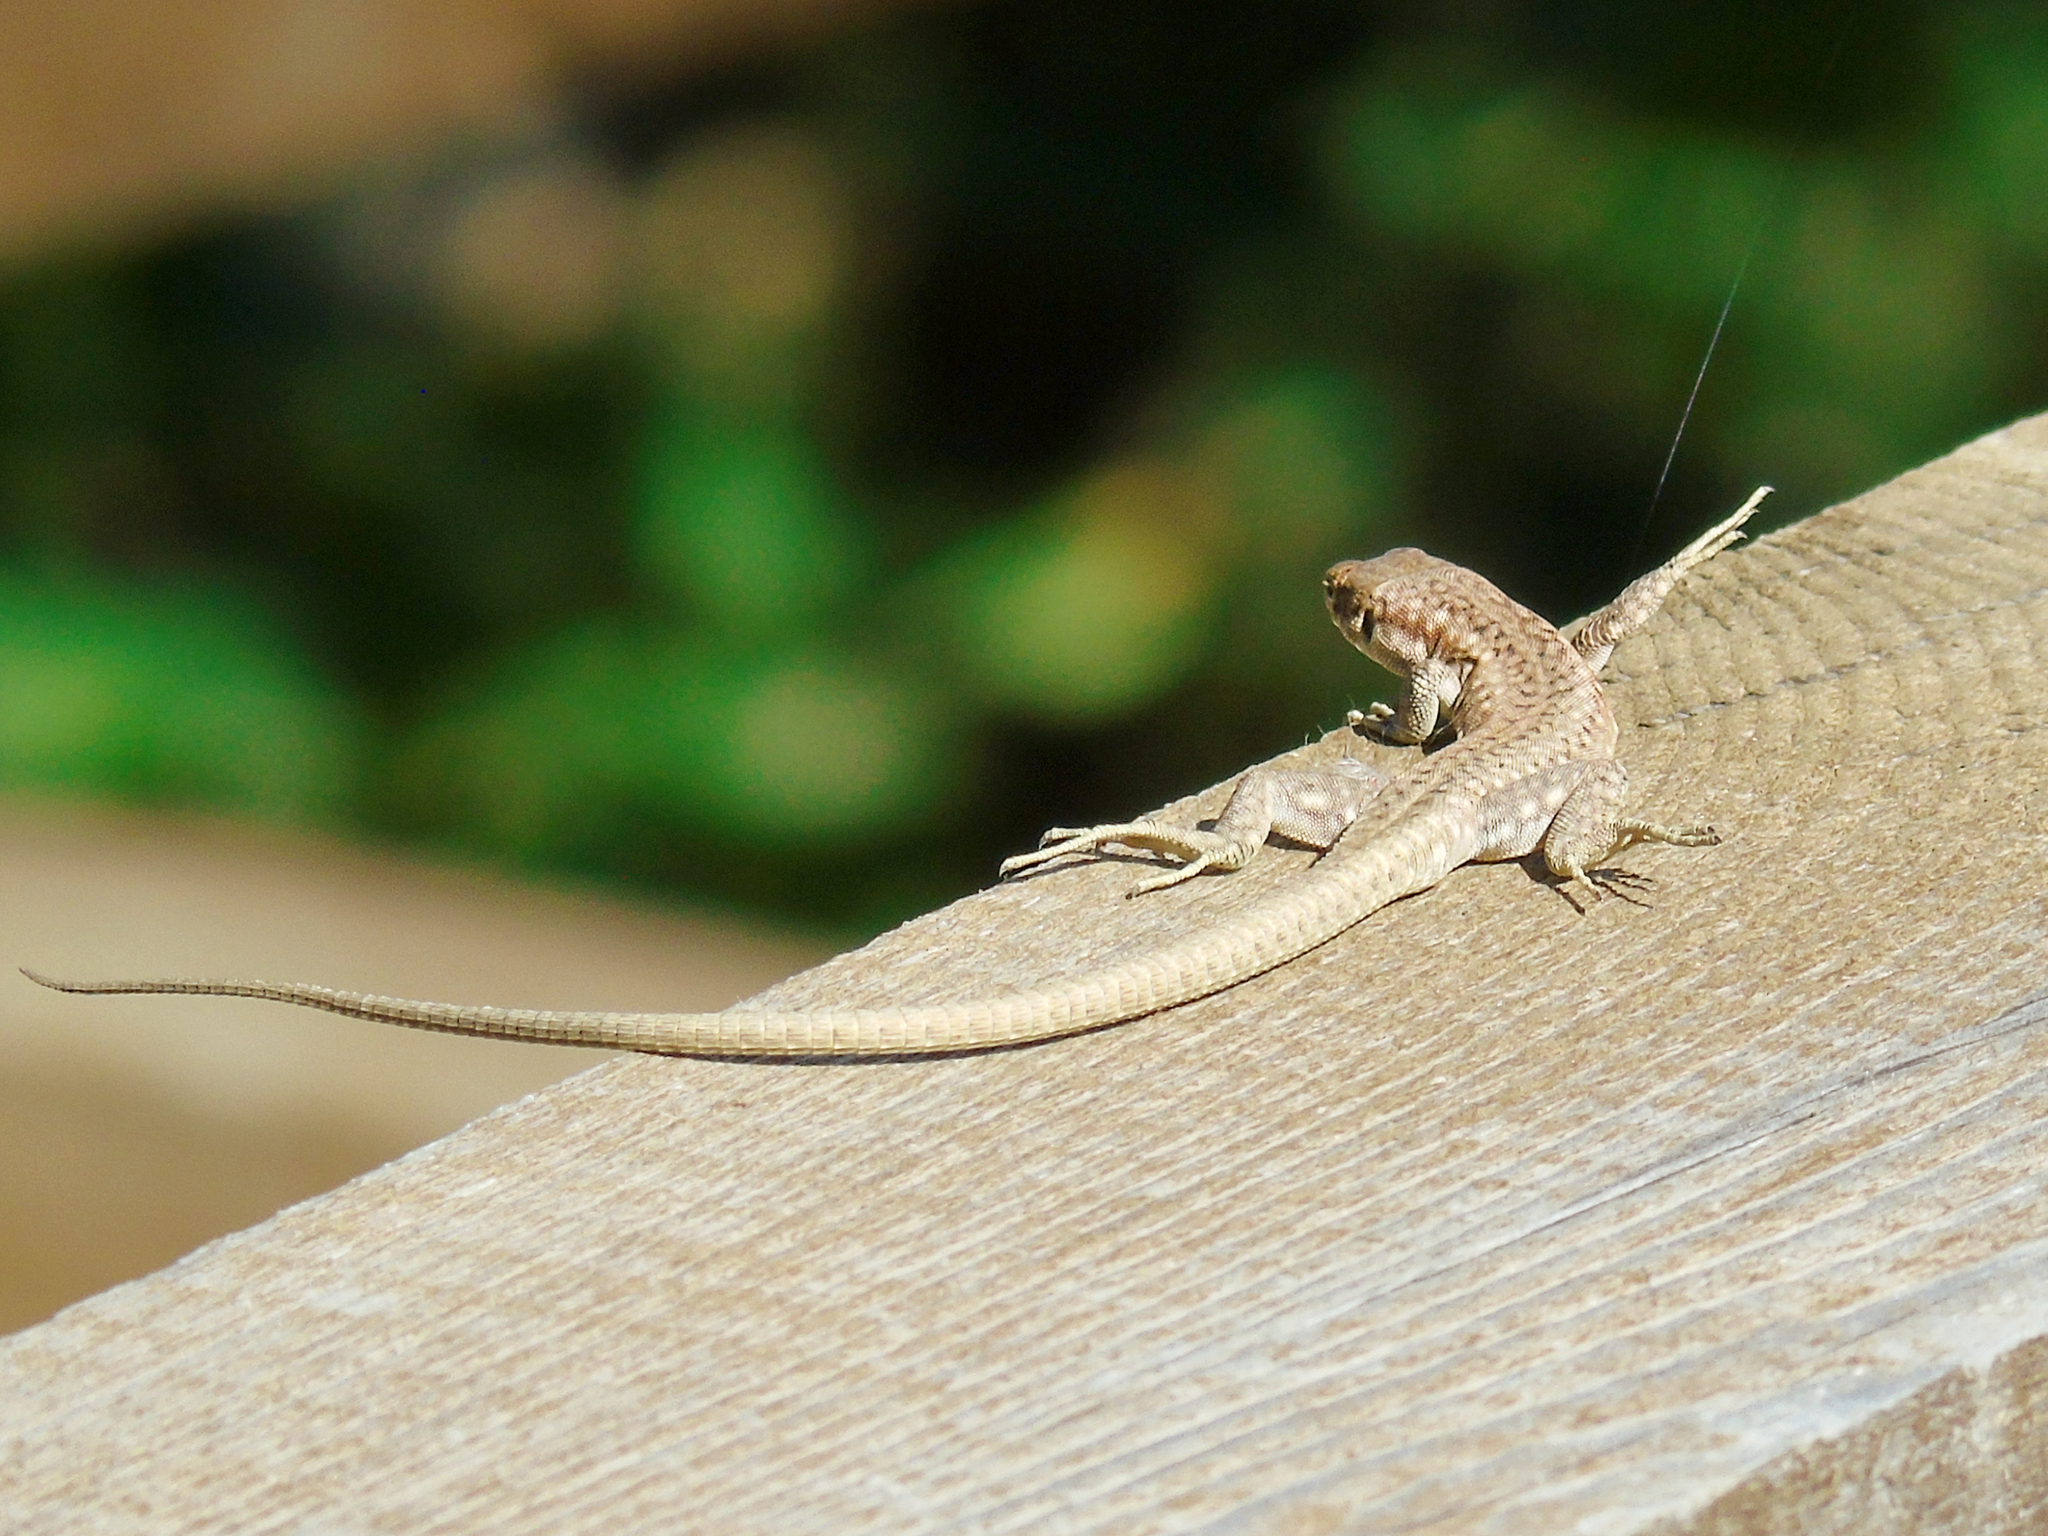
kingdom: Animalia
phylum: Chordata
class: Squamata
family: Lacertidae
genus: Darevskia
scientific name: Darevskia
